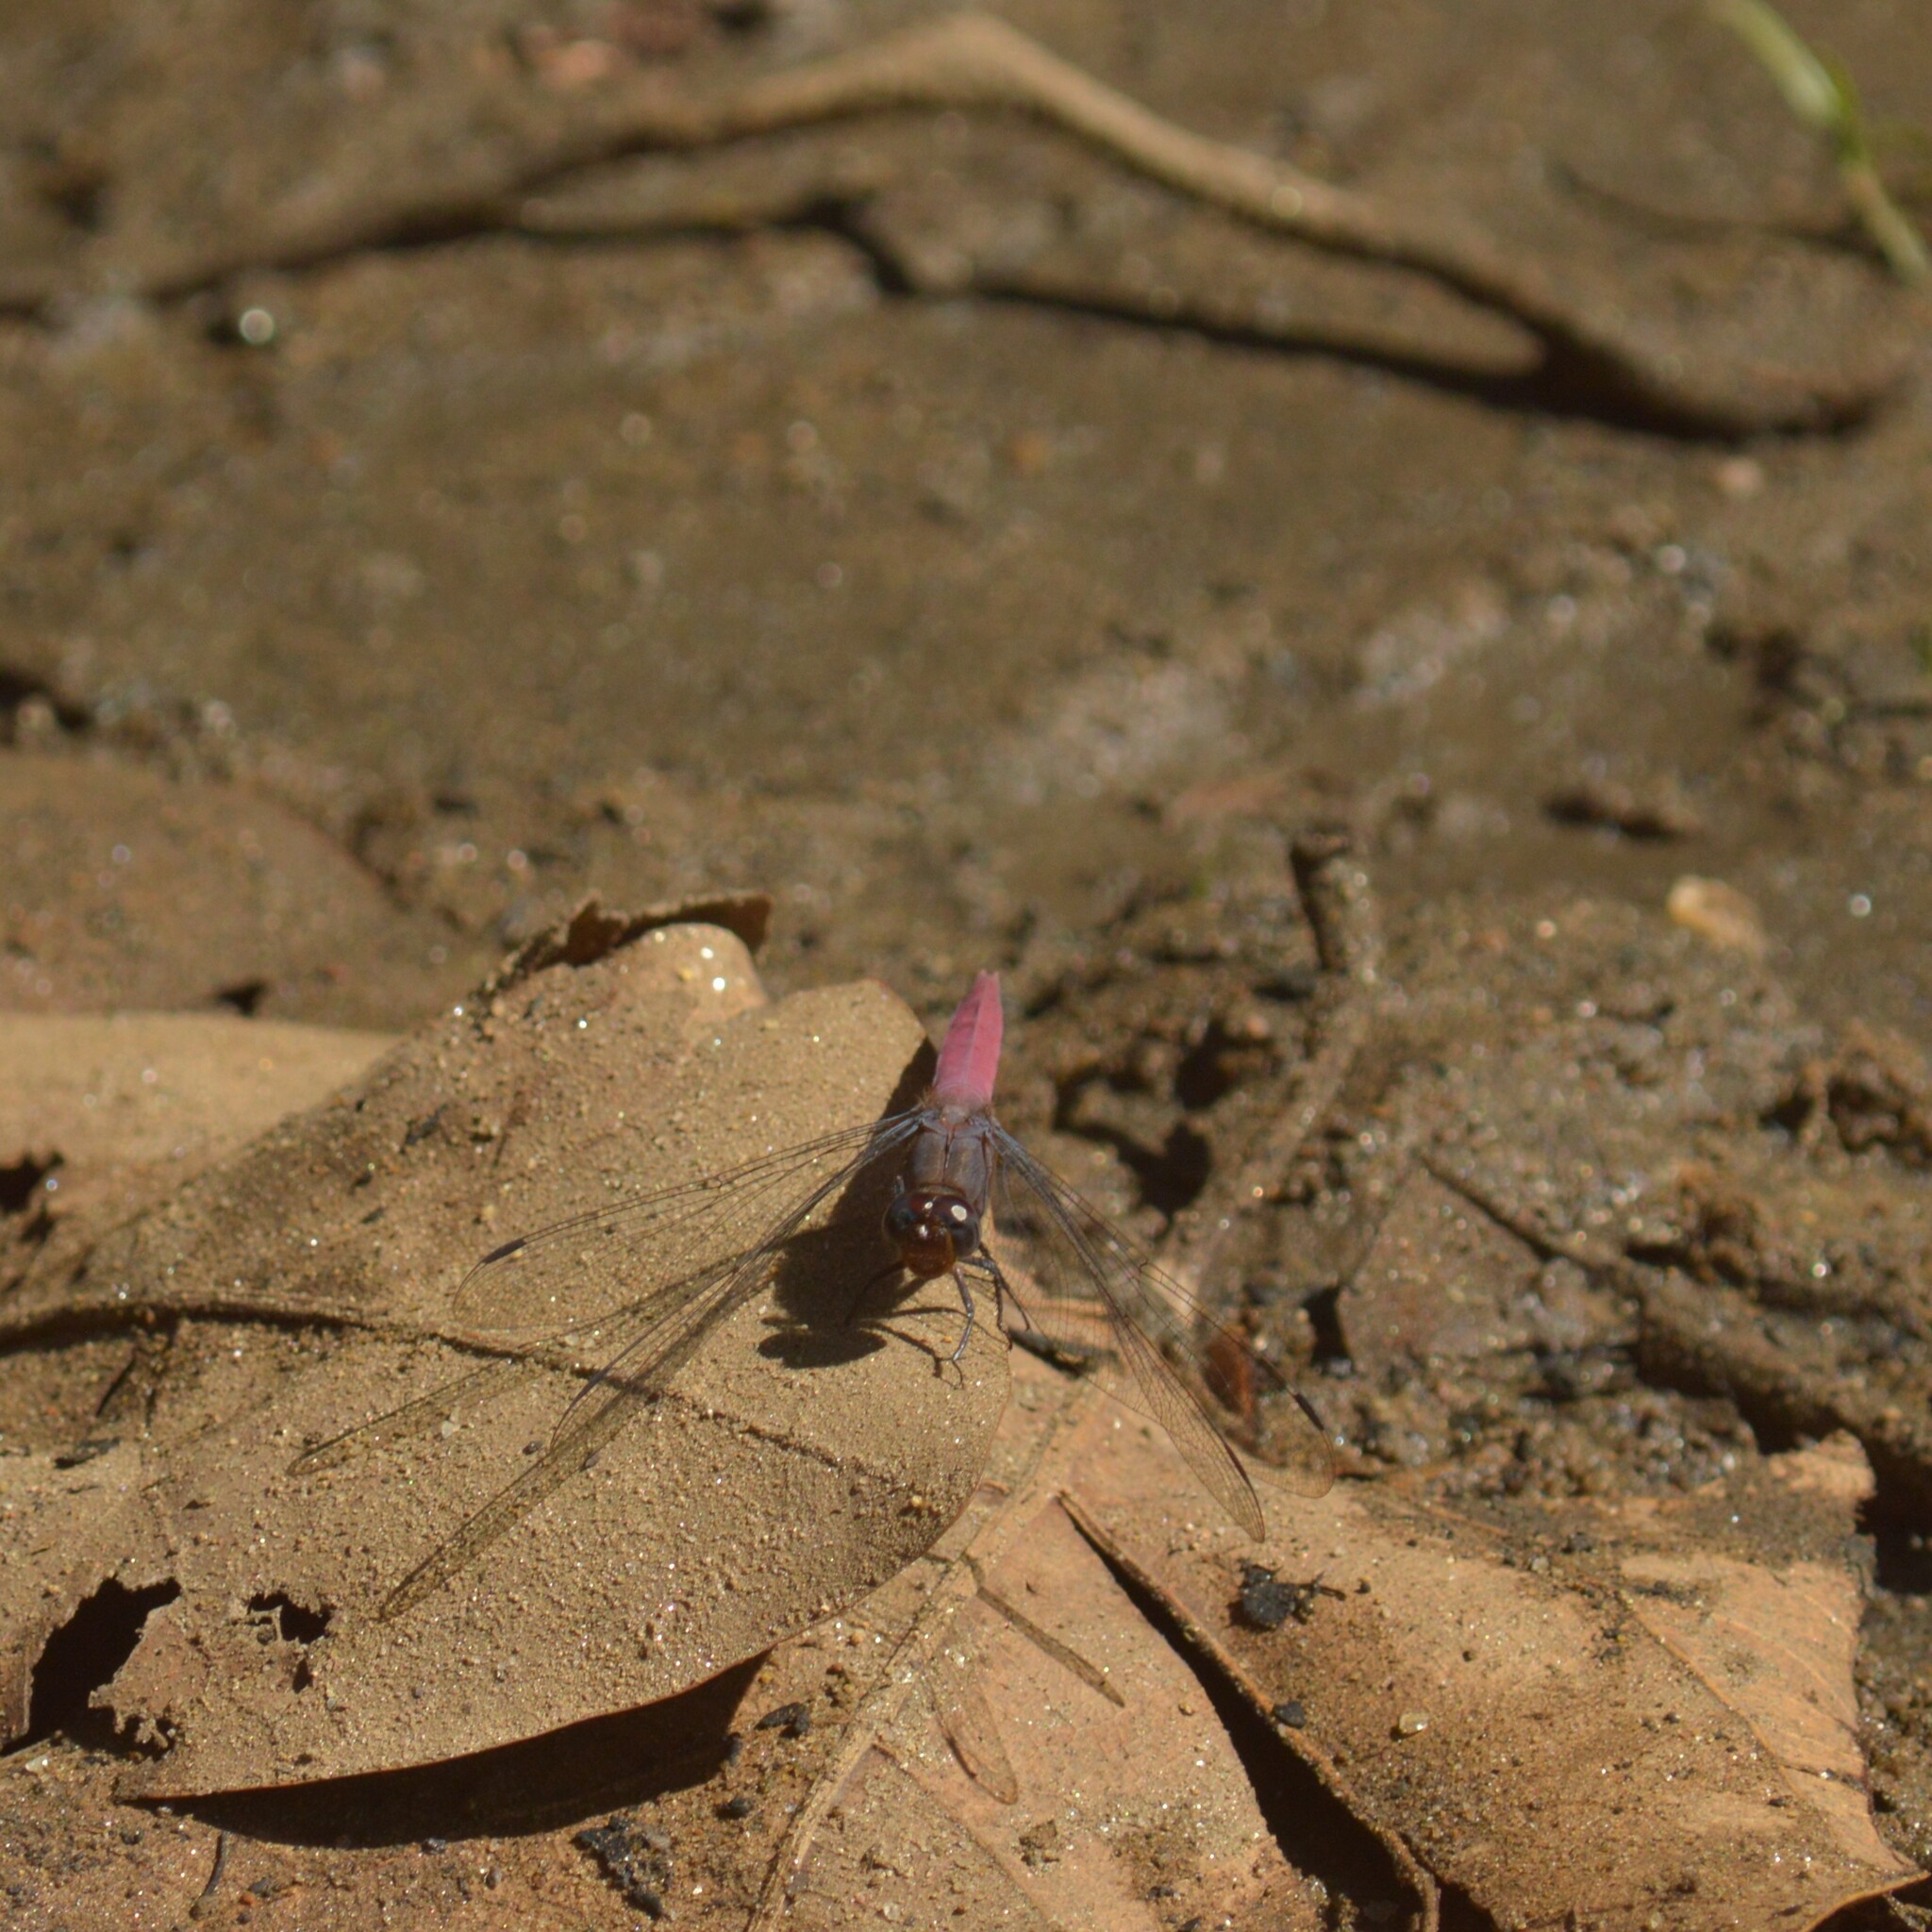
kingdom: Animalia
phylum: Arthropoda
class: Insecta
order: Odonata
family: Libellulidae
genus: Orthetrum
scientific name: Orthetrum pruinosum
